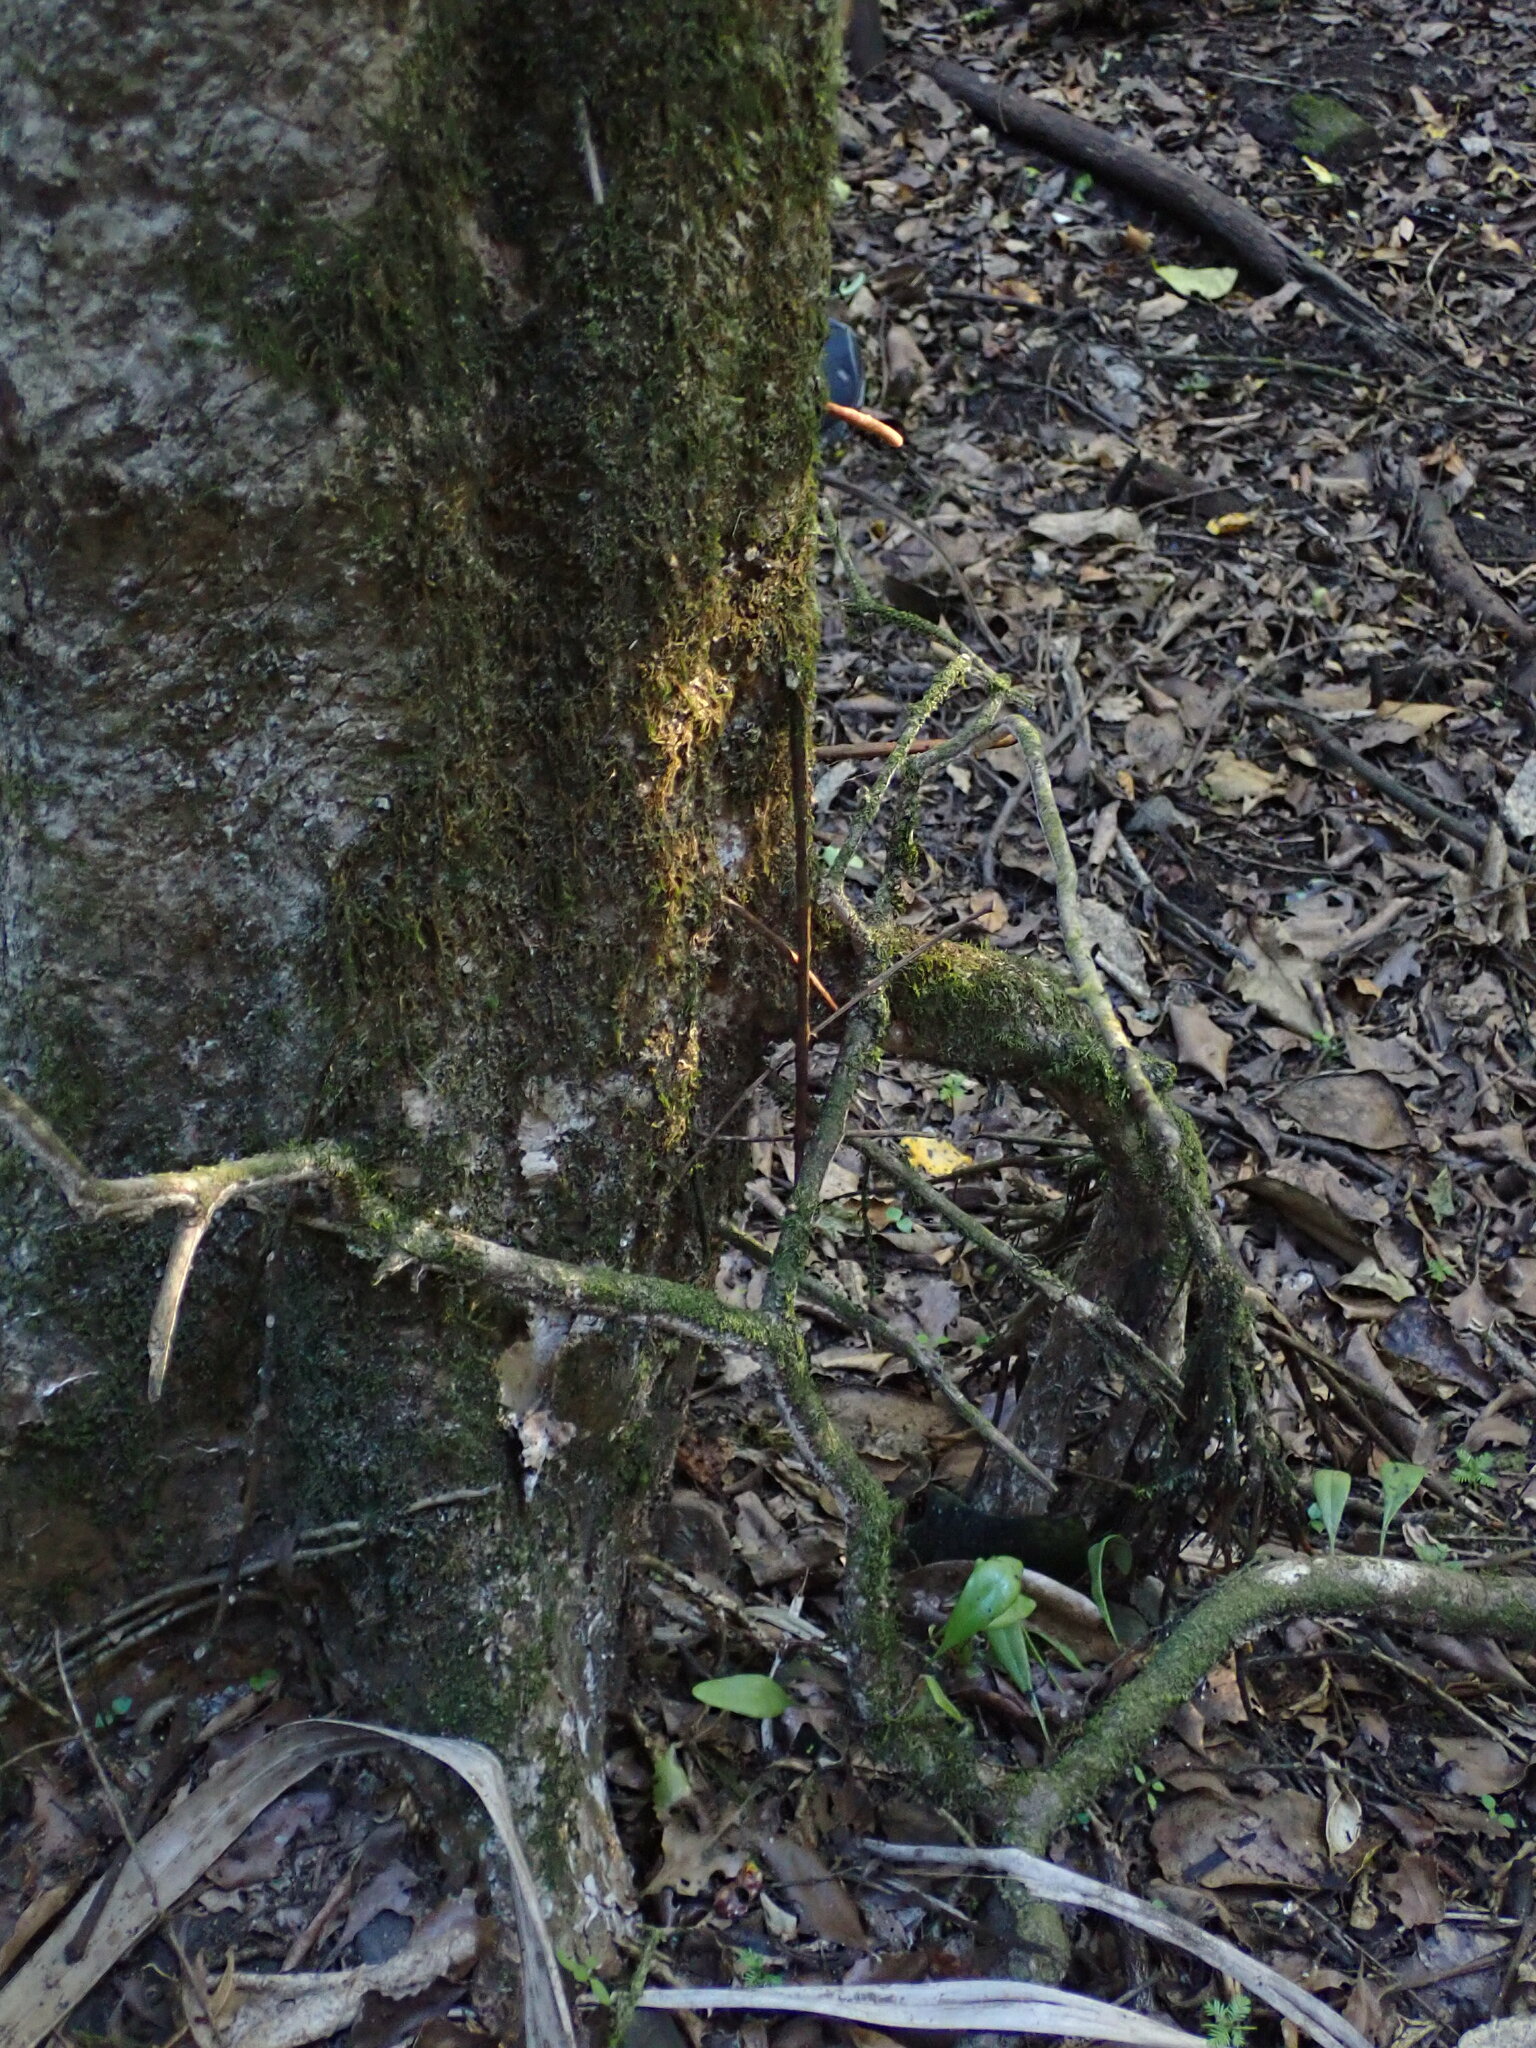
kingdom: Plantae
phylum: Tracheophyta
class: Magnoliopsida
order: Myrtales
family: Myrtaceae
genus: Syzygium
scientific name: Syzygium maire
